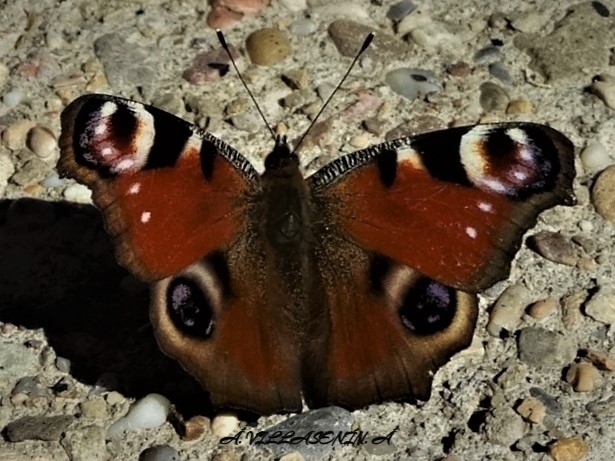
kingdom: Animalia
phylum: Arthropoda
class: Insecta
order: Lepidoptera
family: Nymphalidae
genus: Aglais
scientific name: Aglais io
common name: Peacock
